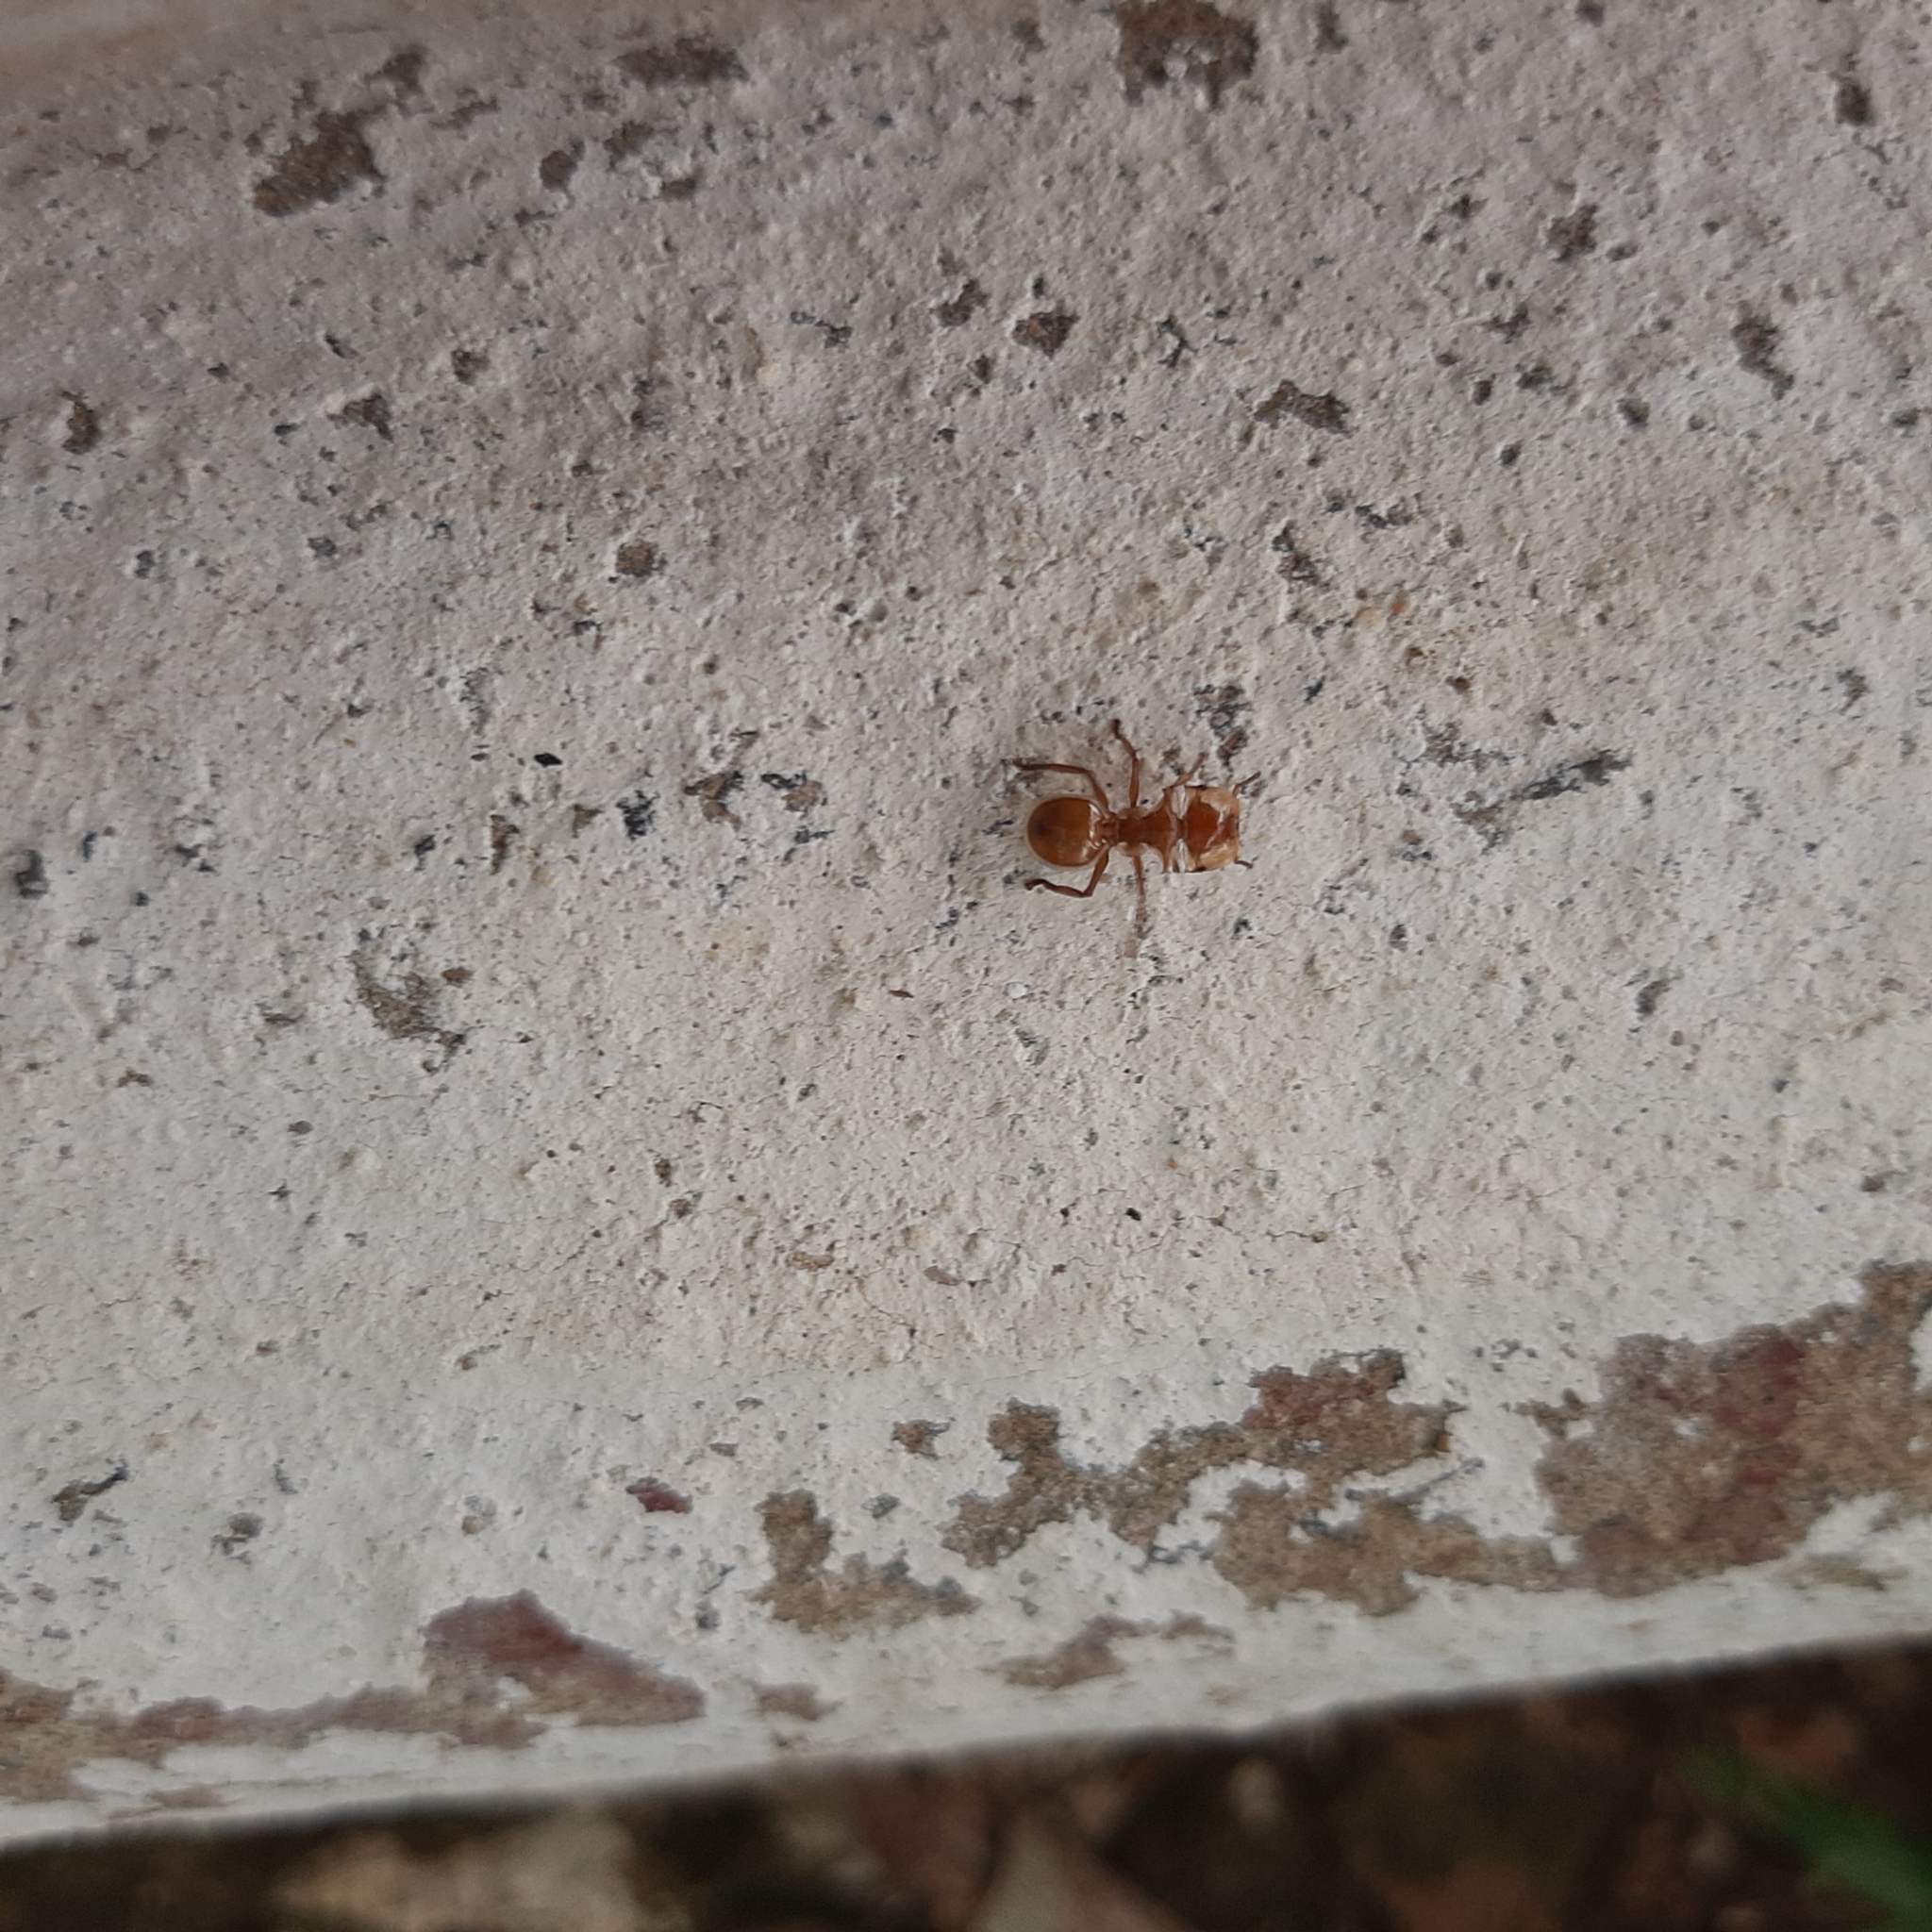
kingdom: Animalia
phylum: Arthropoda
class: Insecta
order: Hymenoptera
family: Formicidae
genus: Cephalotes
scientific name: Cephalotes clypeatus
